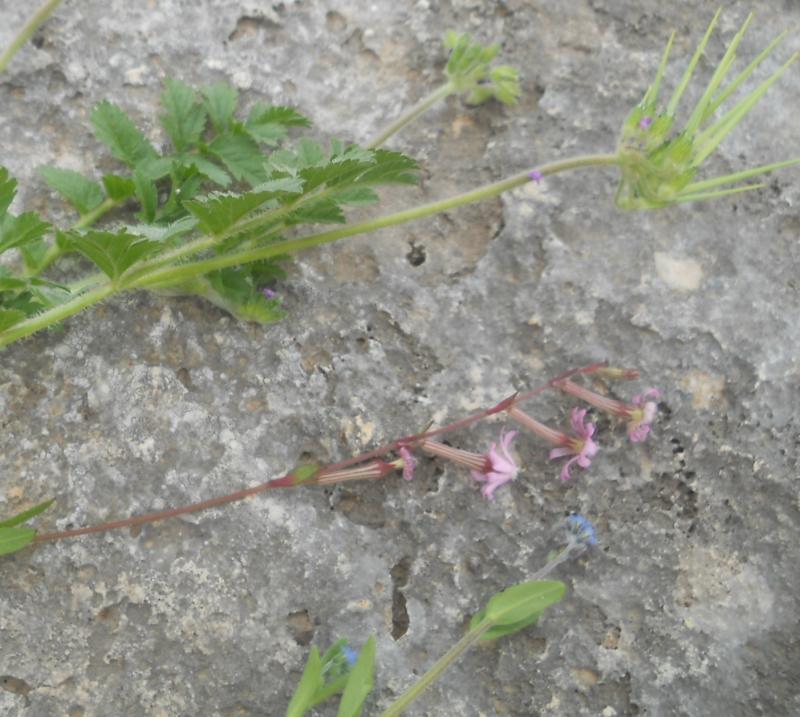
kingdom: Plantae
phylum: Tracheophyta
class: Magnoliopsida
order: Geraniales
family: Geraniaceae
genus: Erodium
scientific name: Erodium moschatum
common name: Musk stork's-bill
